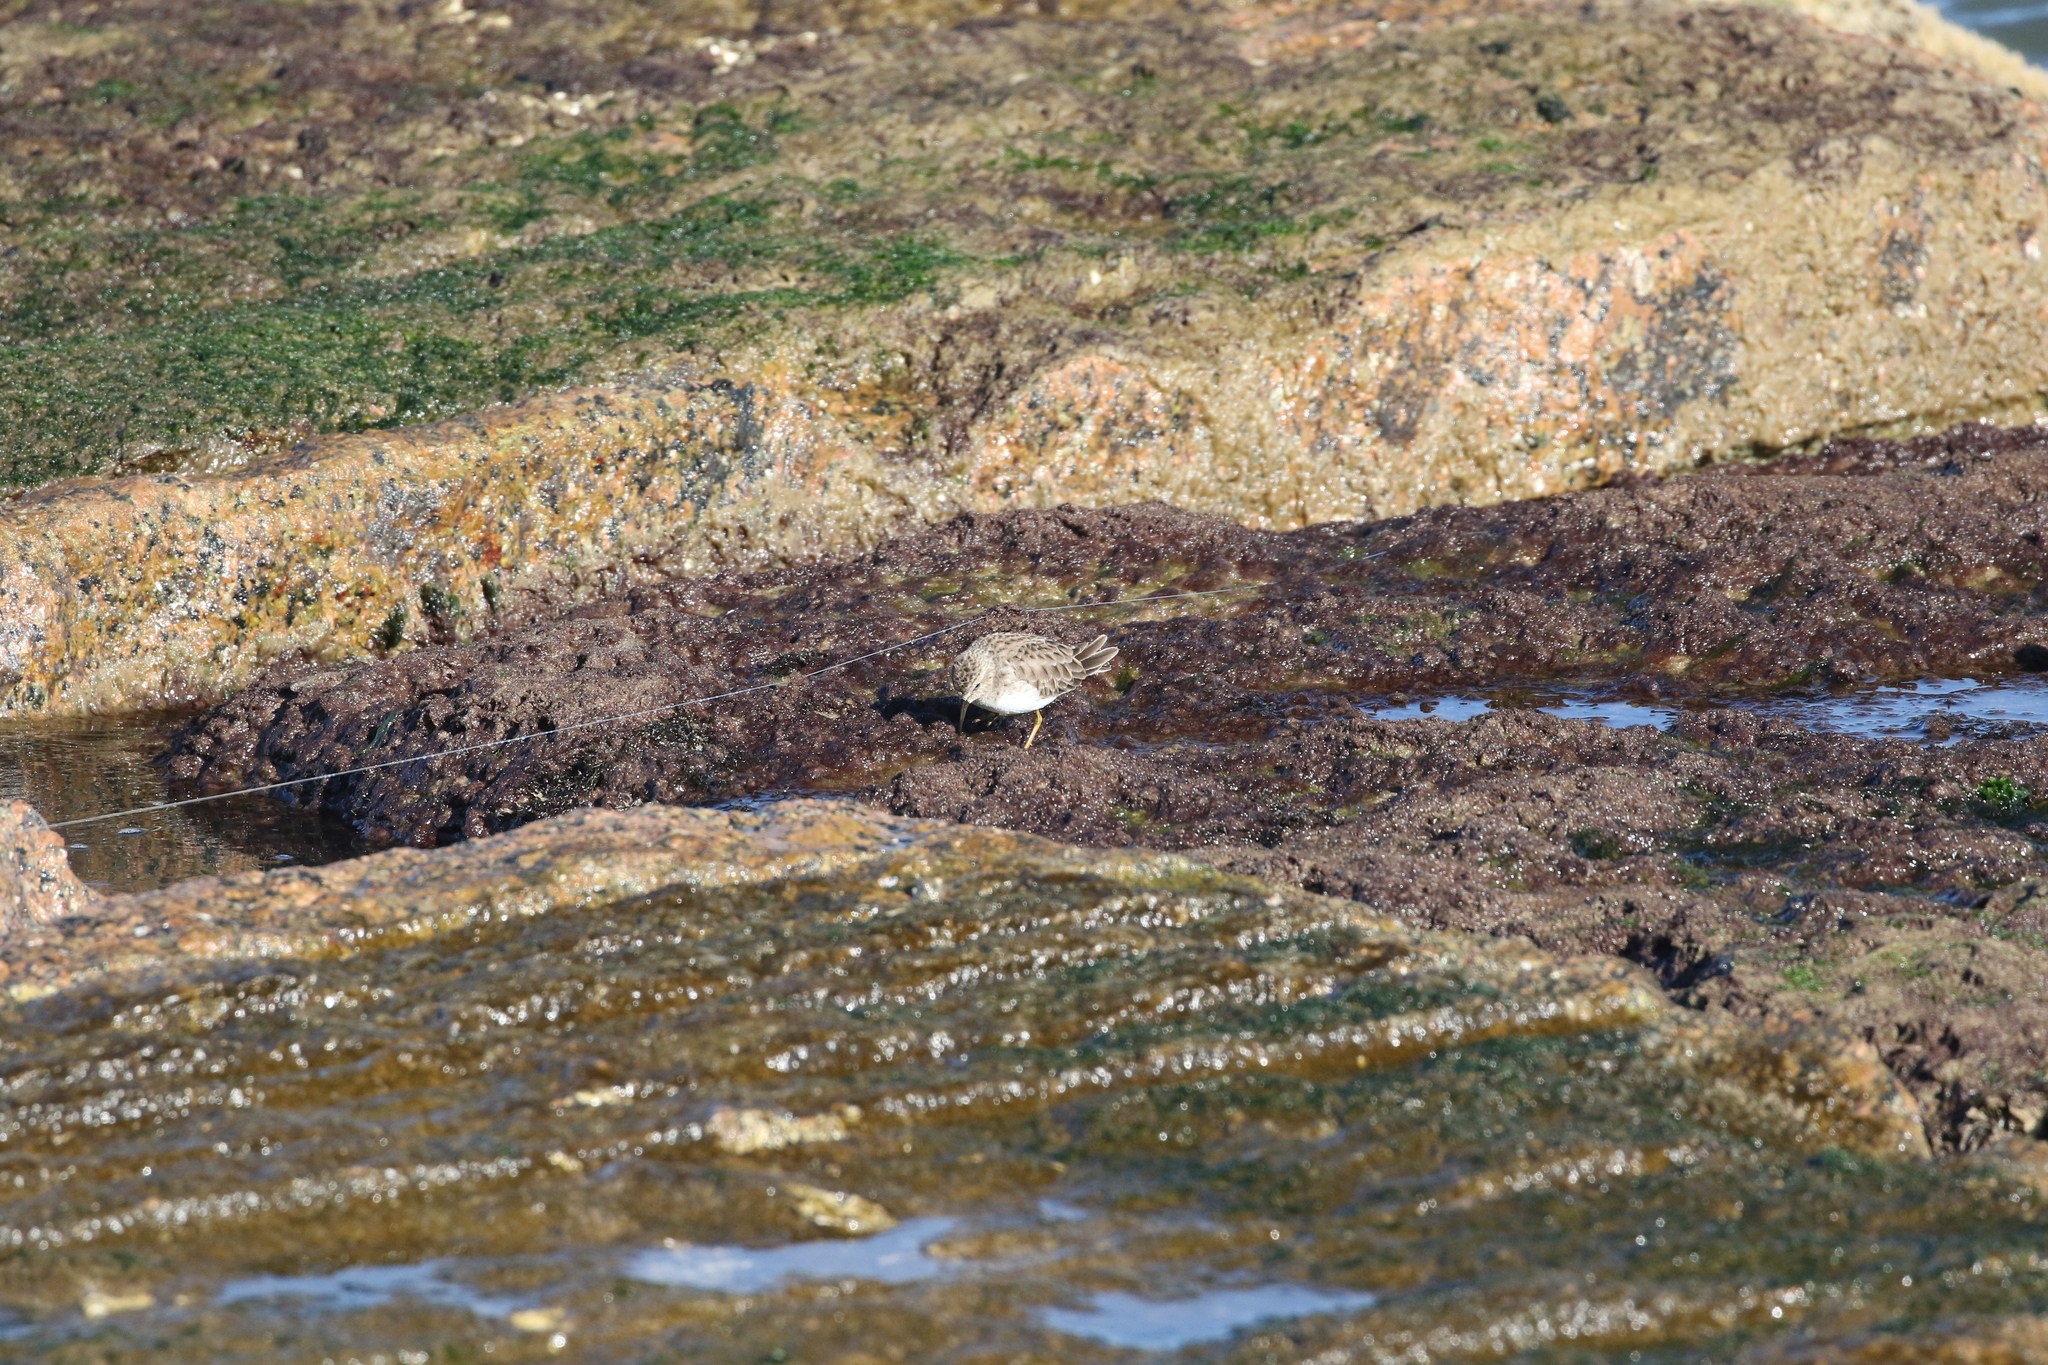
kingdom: Animalia
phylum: Chordata
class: Aves
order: Charadriiformes
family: Scolopacidae
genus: Calidris
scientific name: Calidris minutilla
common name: Least sandpiper
